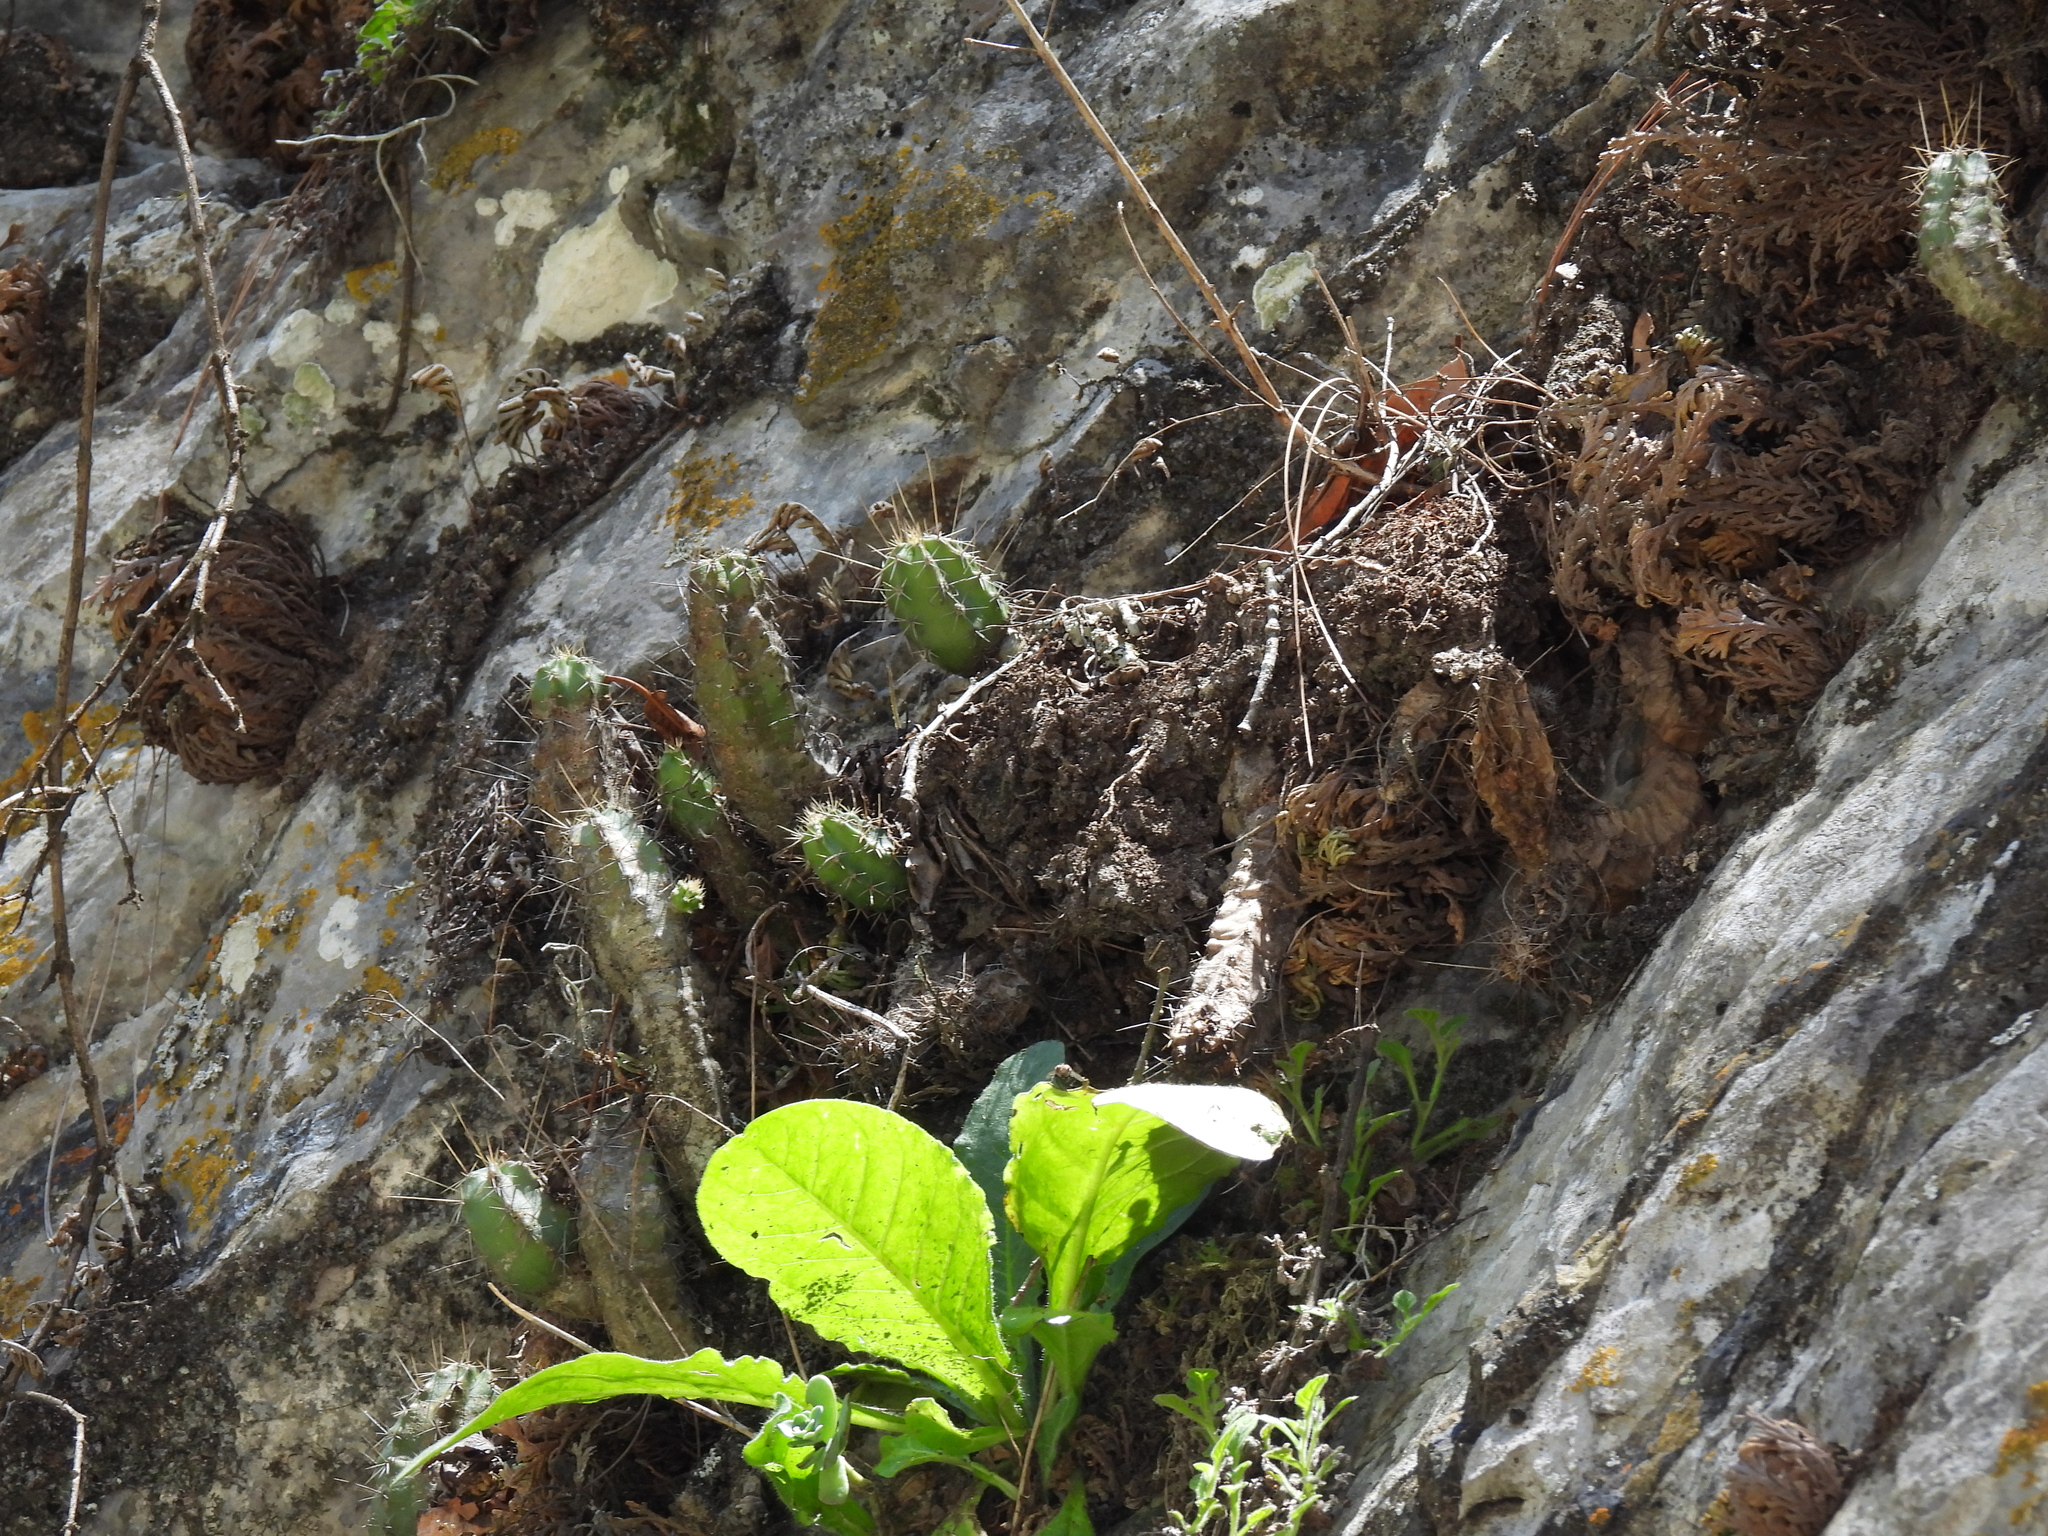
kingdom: Plantae
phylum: Tracheophyta
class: Magnoliopsida
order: Caryophyllales
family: Cactaceae
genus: Echinocereus
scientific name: Echinocereus pentalophus
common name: Ladyfinger cactus
